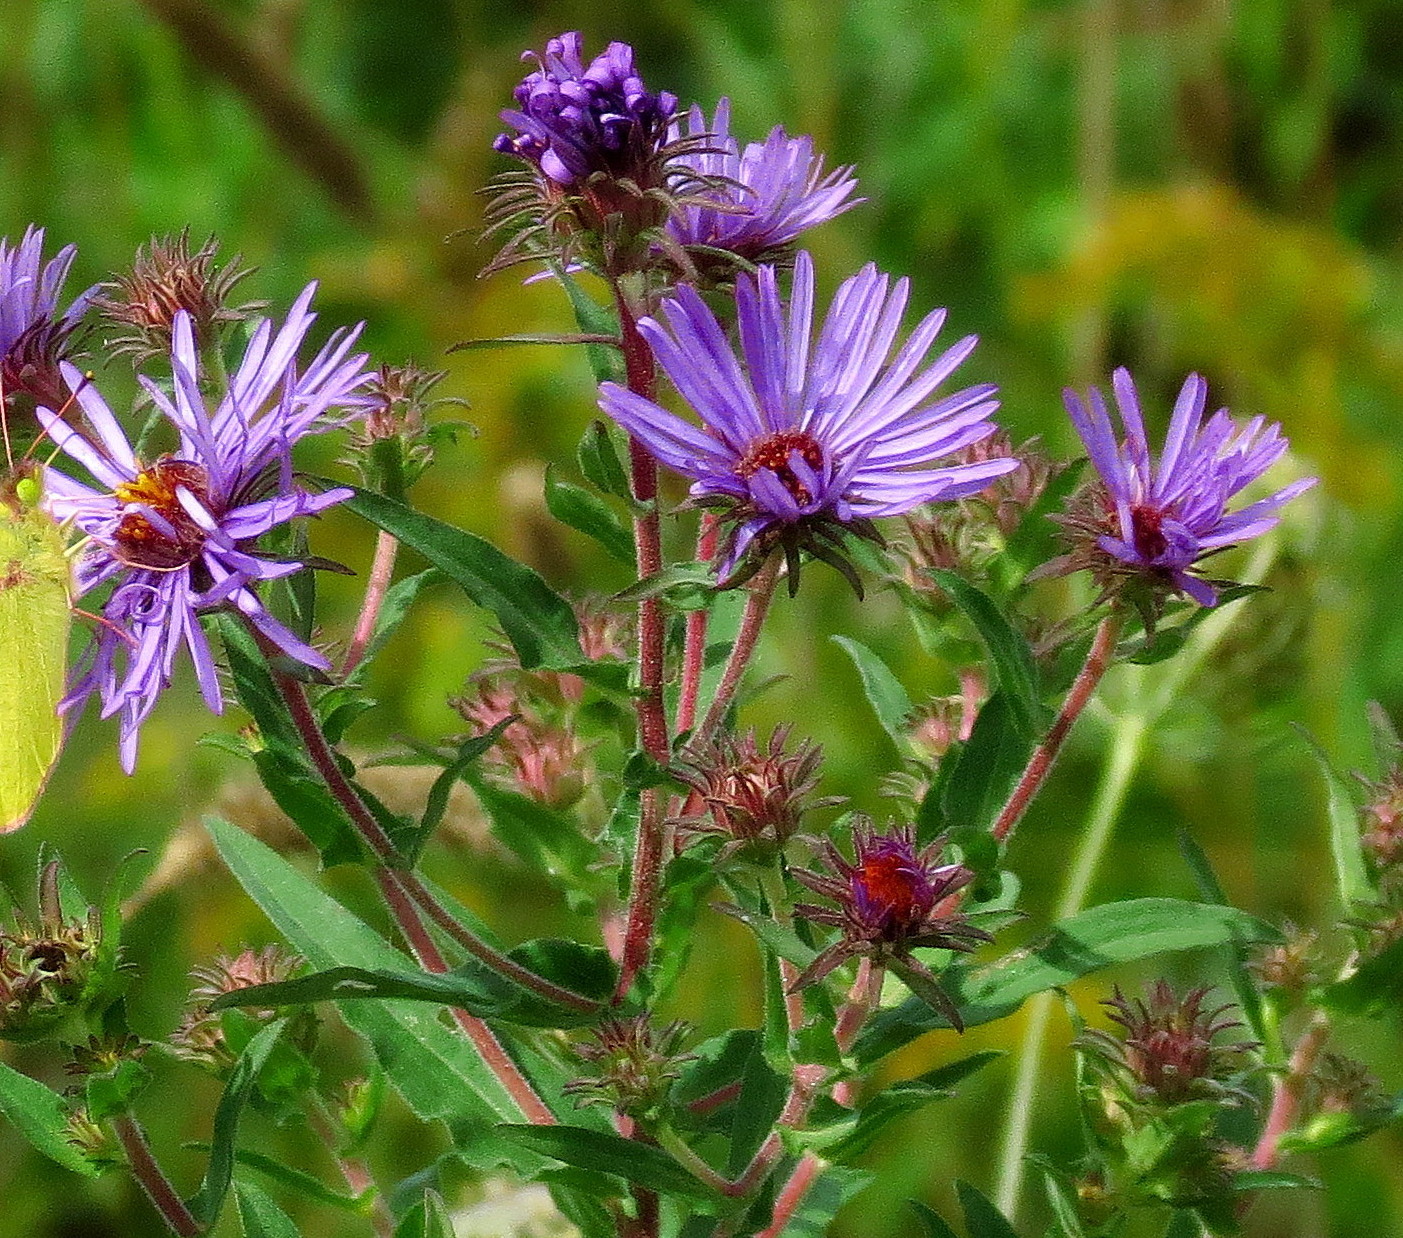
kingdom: Plantae
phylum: Tracheophyta
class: Magnoliopsida
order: Asterales
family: Asteraceae
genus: Symphyotrichum
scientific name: Symphyotrichum novae-angliae
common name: Michaelmas daisy
